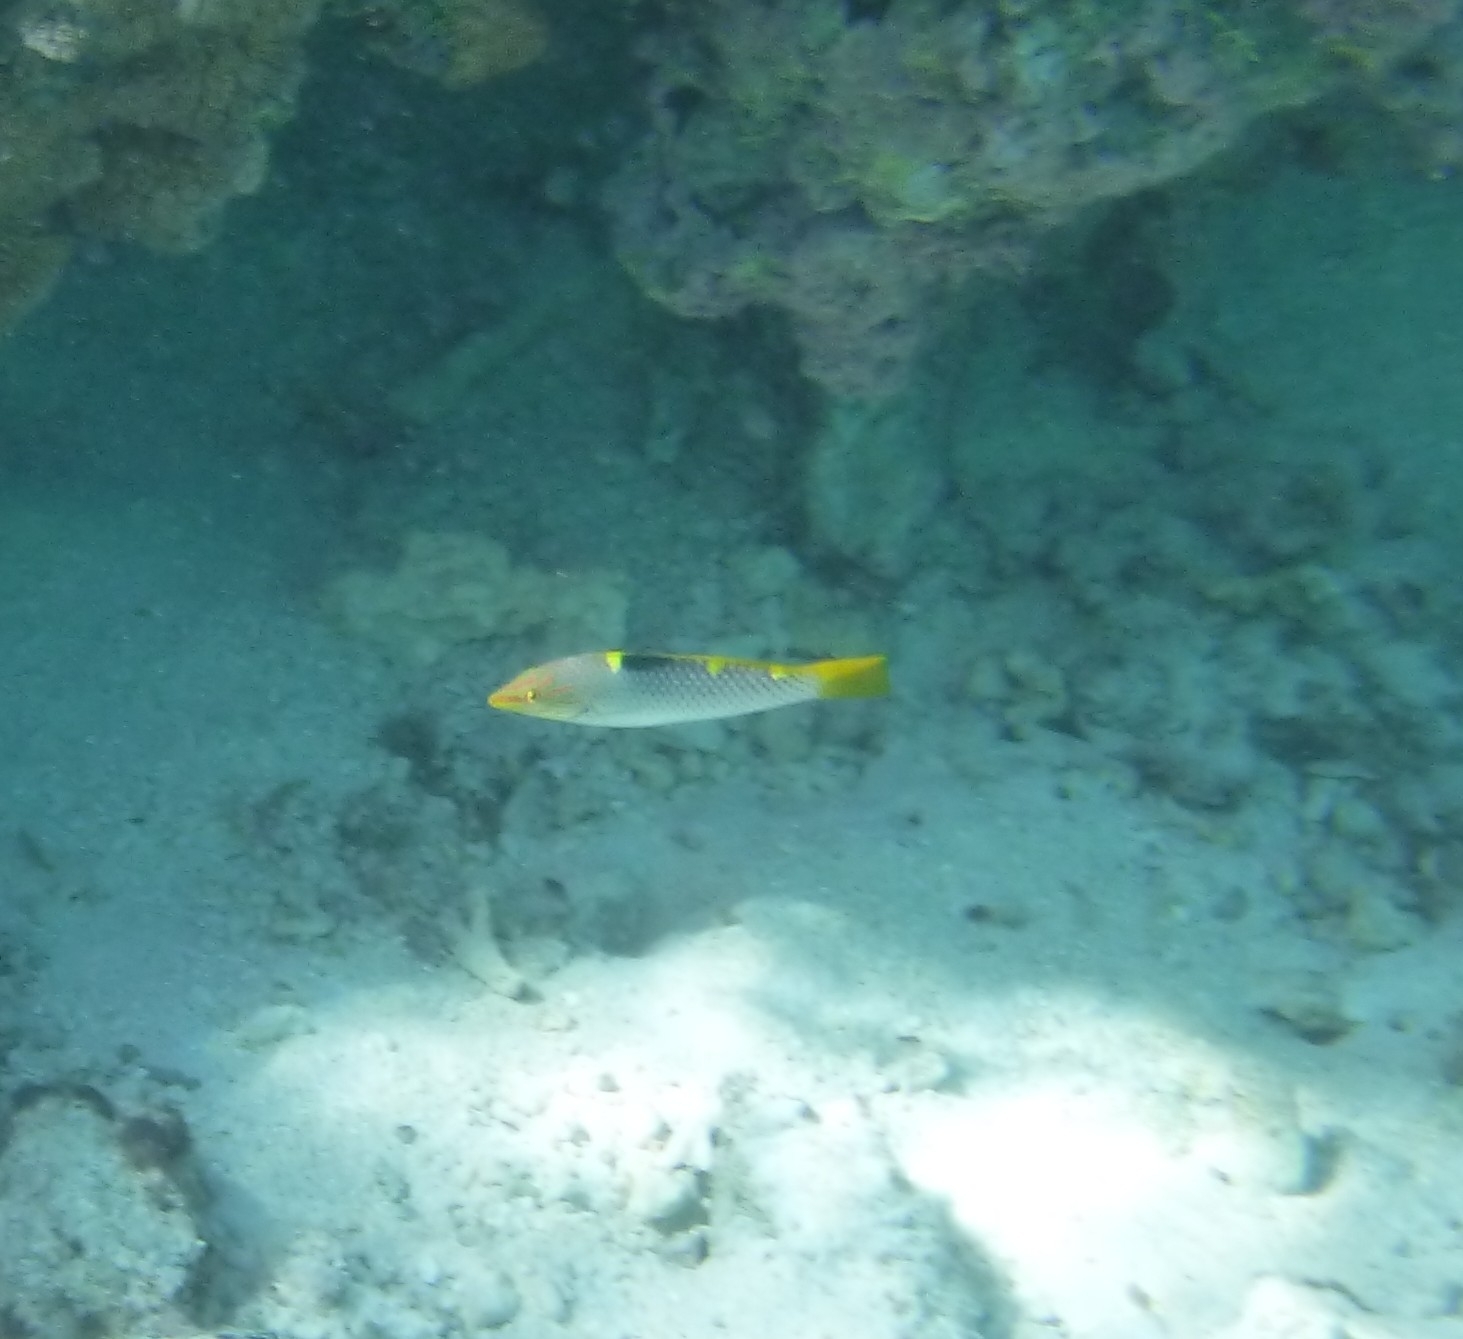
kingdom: Animalia
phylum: Chordata
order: Perciformes
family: Labridae
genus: Halichoeres
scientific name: Halichoeres hortulanus
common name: Checkerboard wrasse
